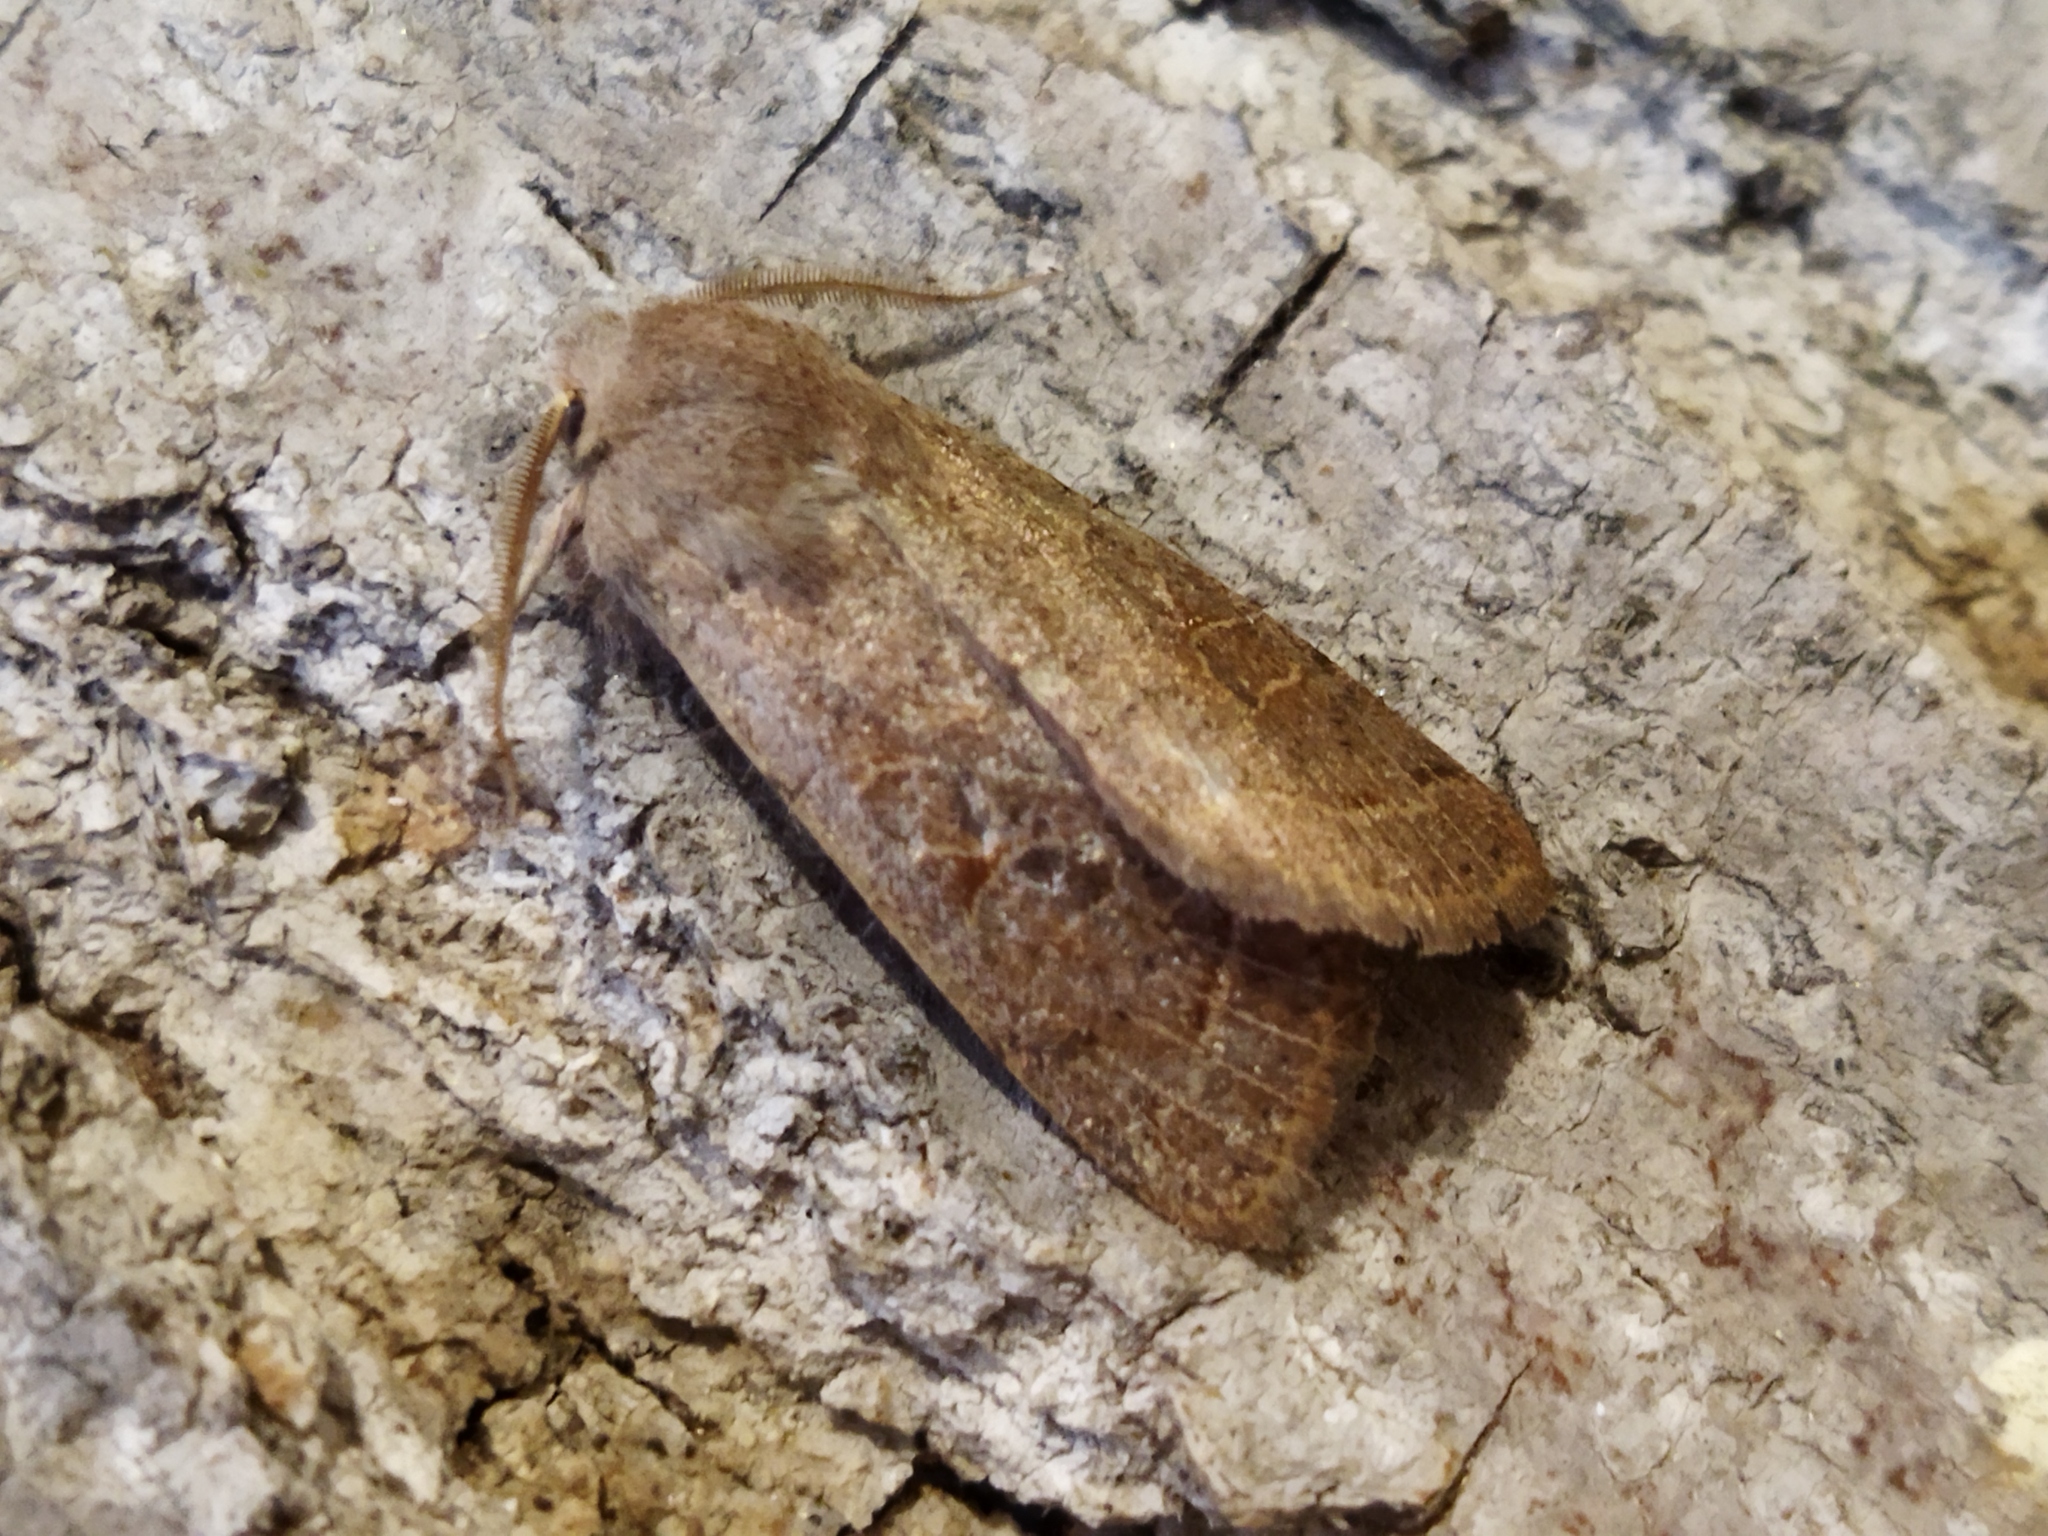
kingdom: Animalia
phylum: Arthropoda
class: Insecta
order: Lepidoptera
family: Noctuidae
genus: Orthosia
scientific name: Orthosia cerasi
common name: Common quaker
